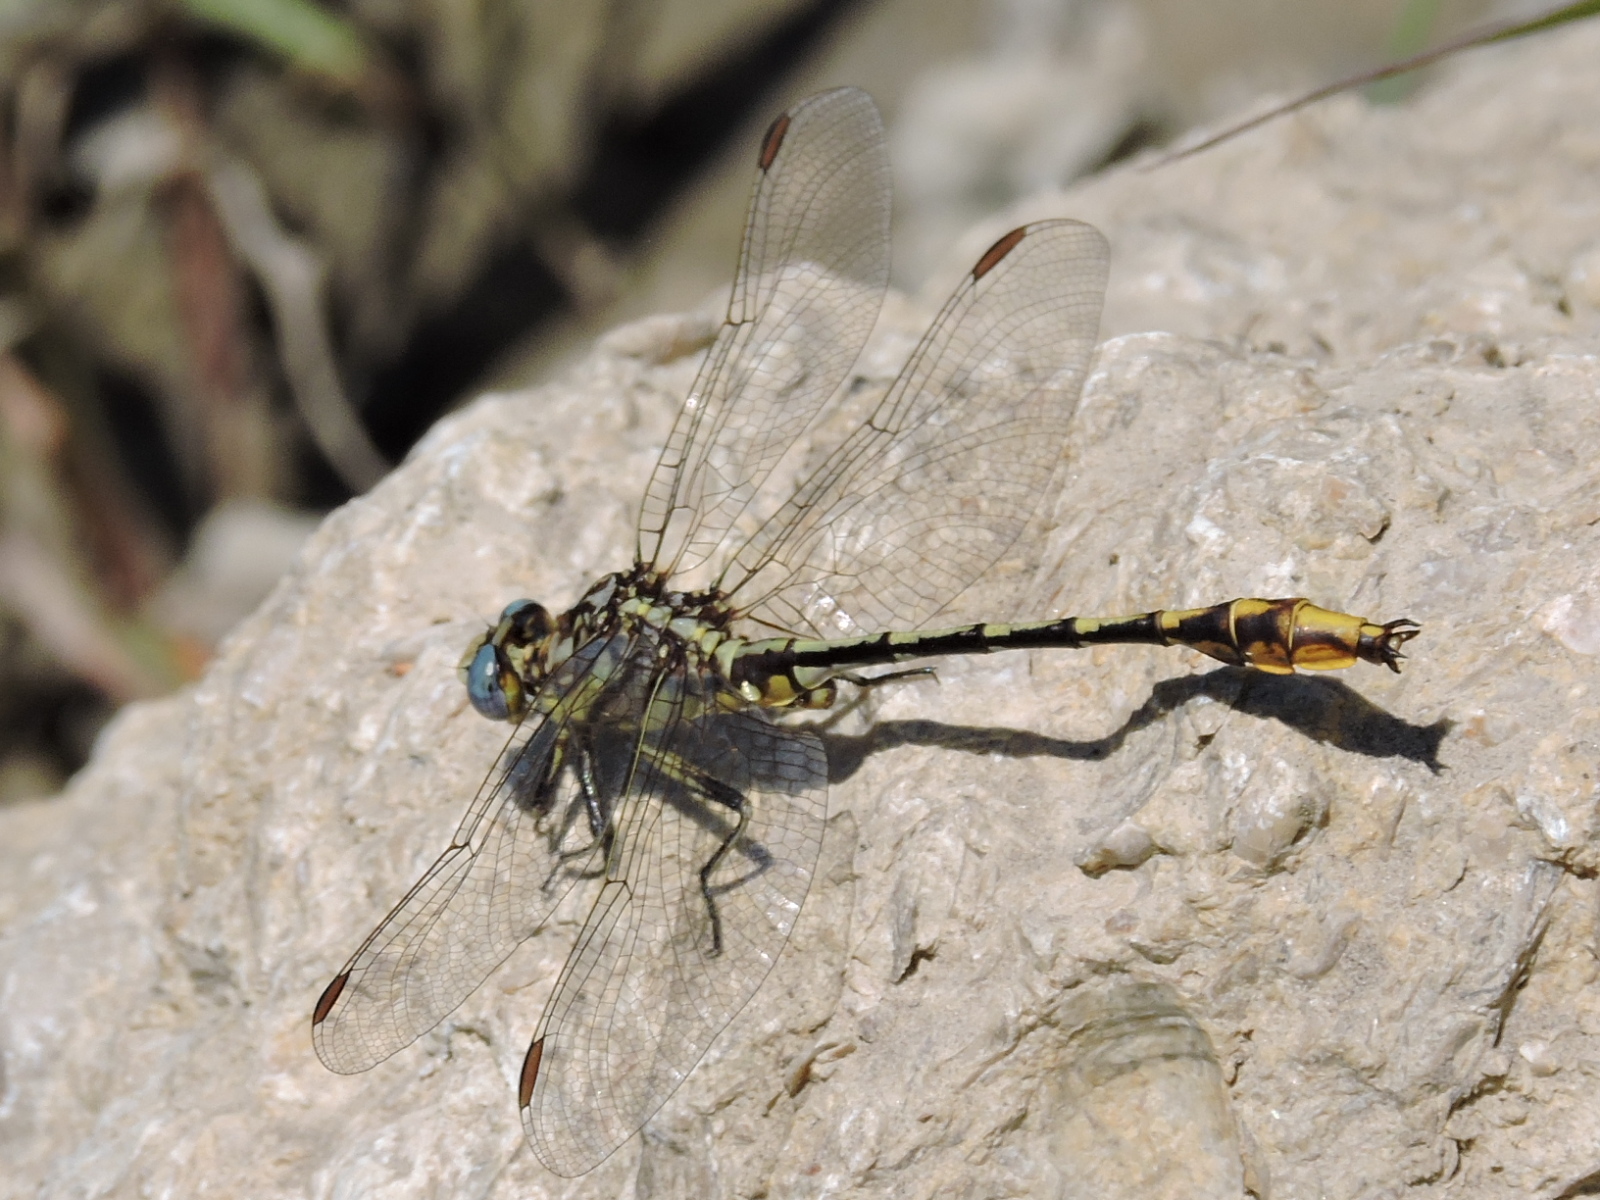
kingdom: Animalia
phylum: Arthropoda
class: Insecta
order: Odonata
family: Gomphidae
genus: Phanogomphus
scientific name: Phanogomphus militaris
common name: Sulphur-tipped clubtail
